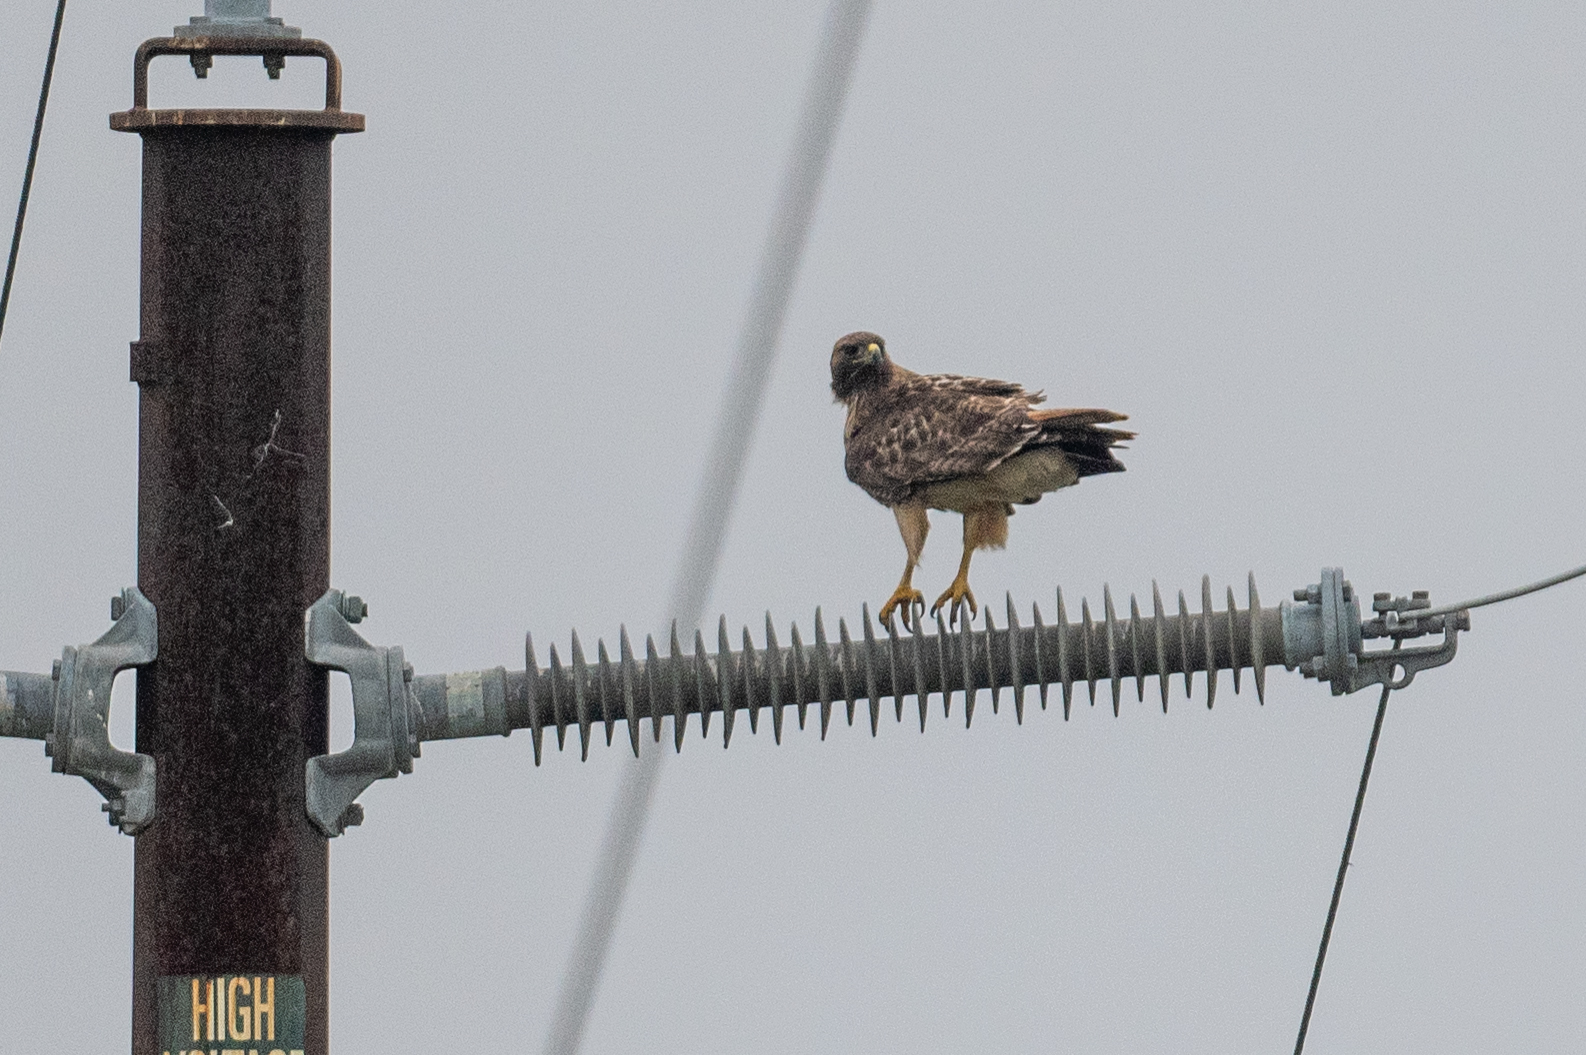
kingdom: Animalia
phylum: Chordata
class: Aves
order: Accipitriformes
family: Accipitridae
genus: Buteo
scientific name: Buteo jamaicensis
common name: Red-tailed hawk
